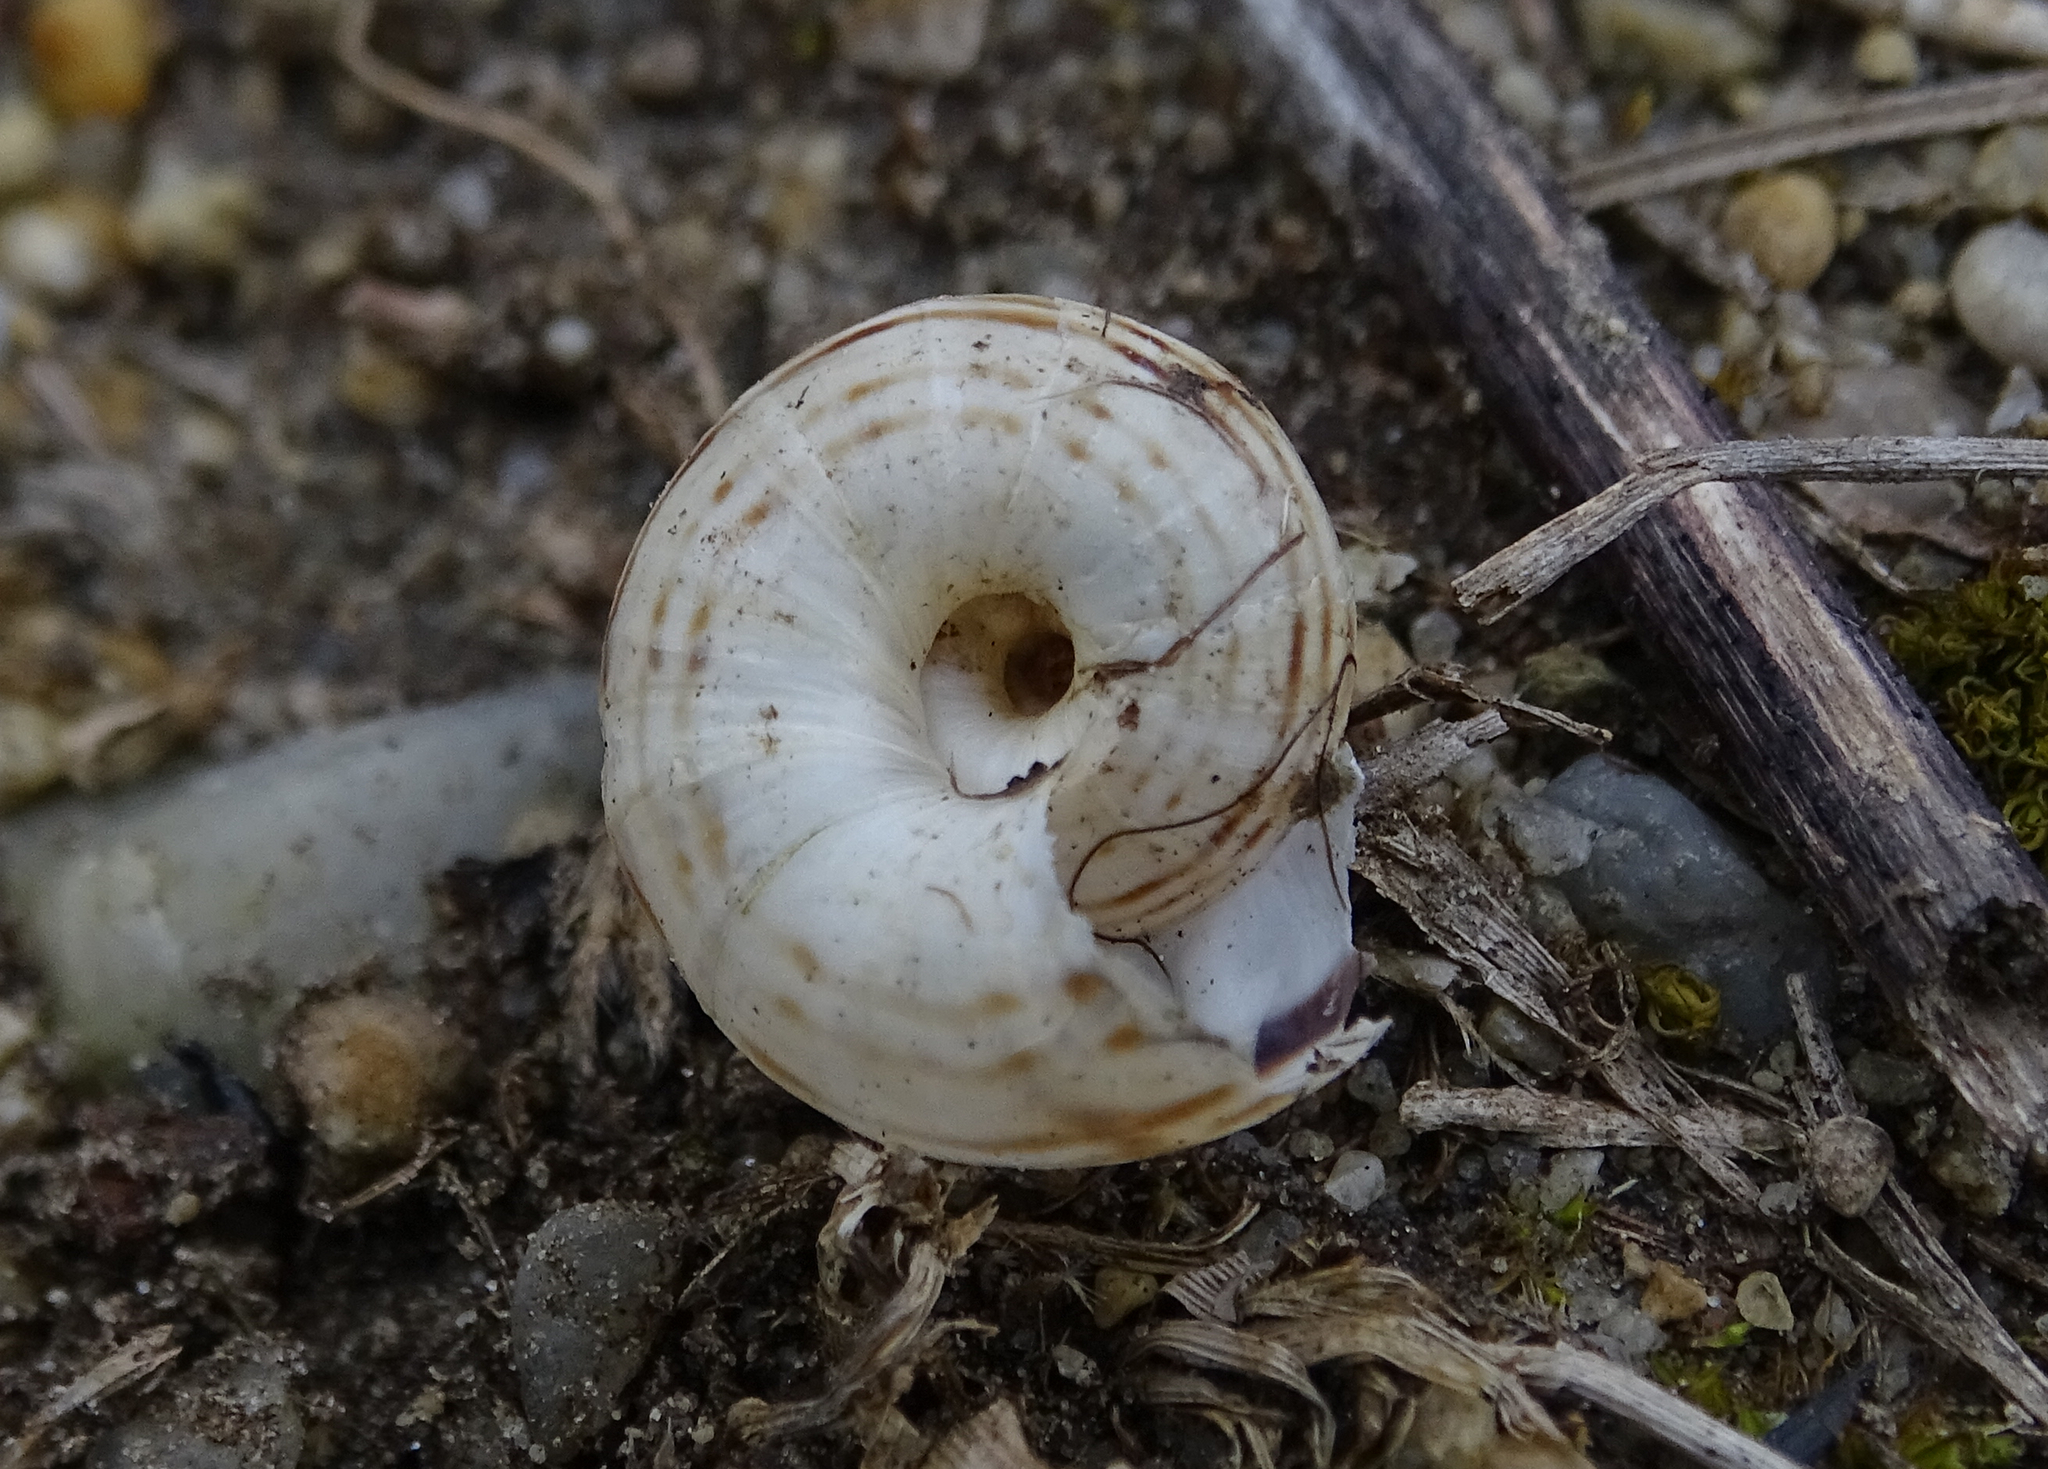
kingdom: Animalia
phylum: Mollusca
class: Gastropoda
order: Stylommatophora
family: Geomitridae
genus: Xerolenta
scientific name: Xerolenta obvia
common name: White heath snail
